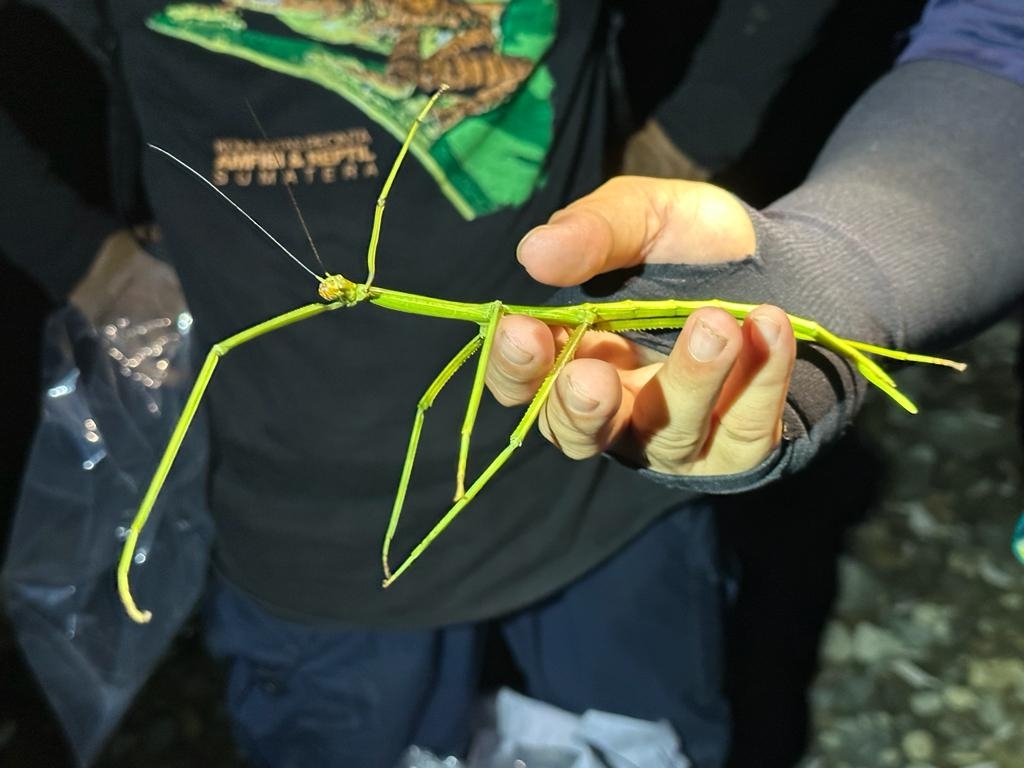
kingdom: Animalia
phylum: Arthropoda
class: Insecta
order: Phasmida
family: Phasmatidae
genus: Nesiophasma
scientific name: Nesiophasma plateni
